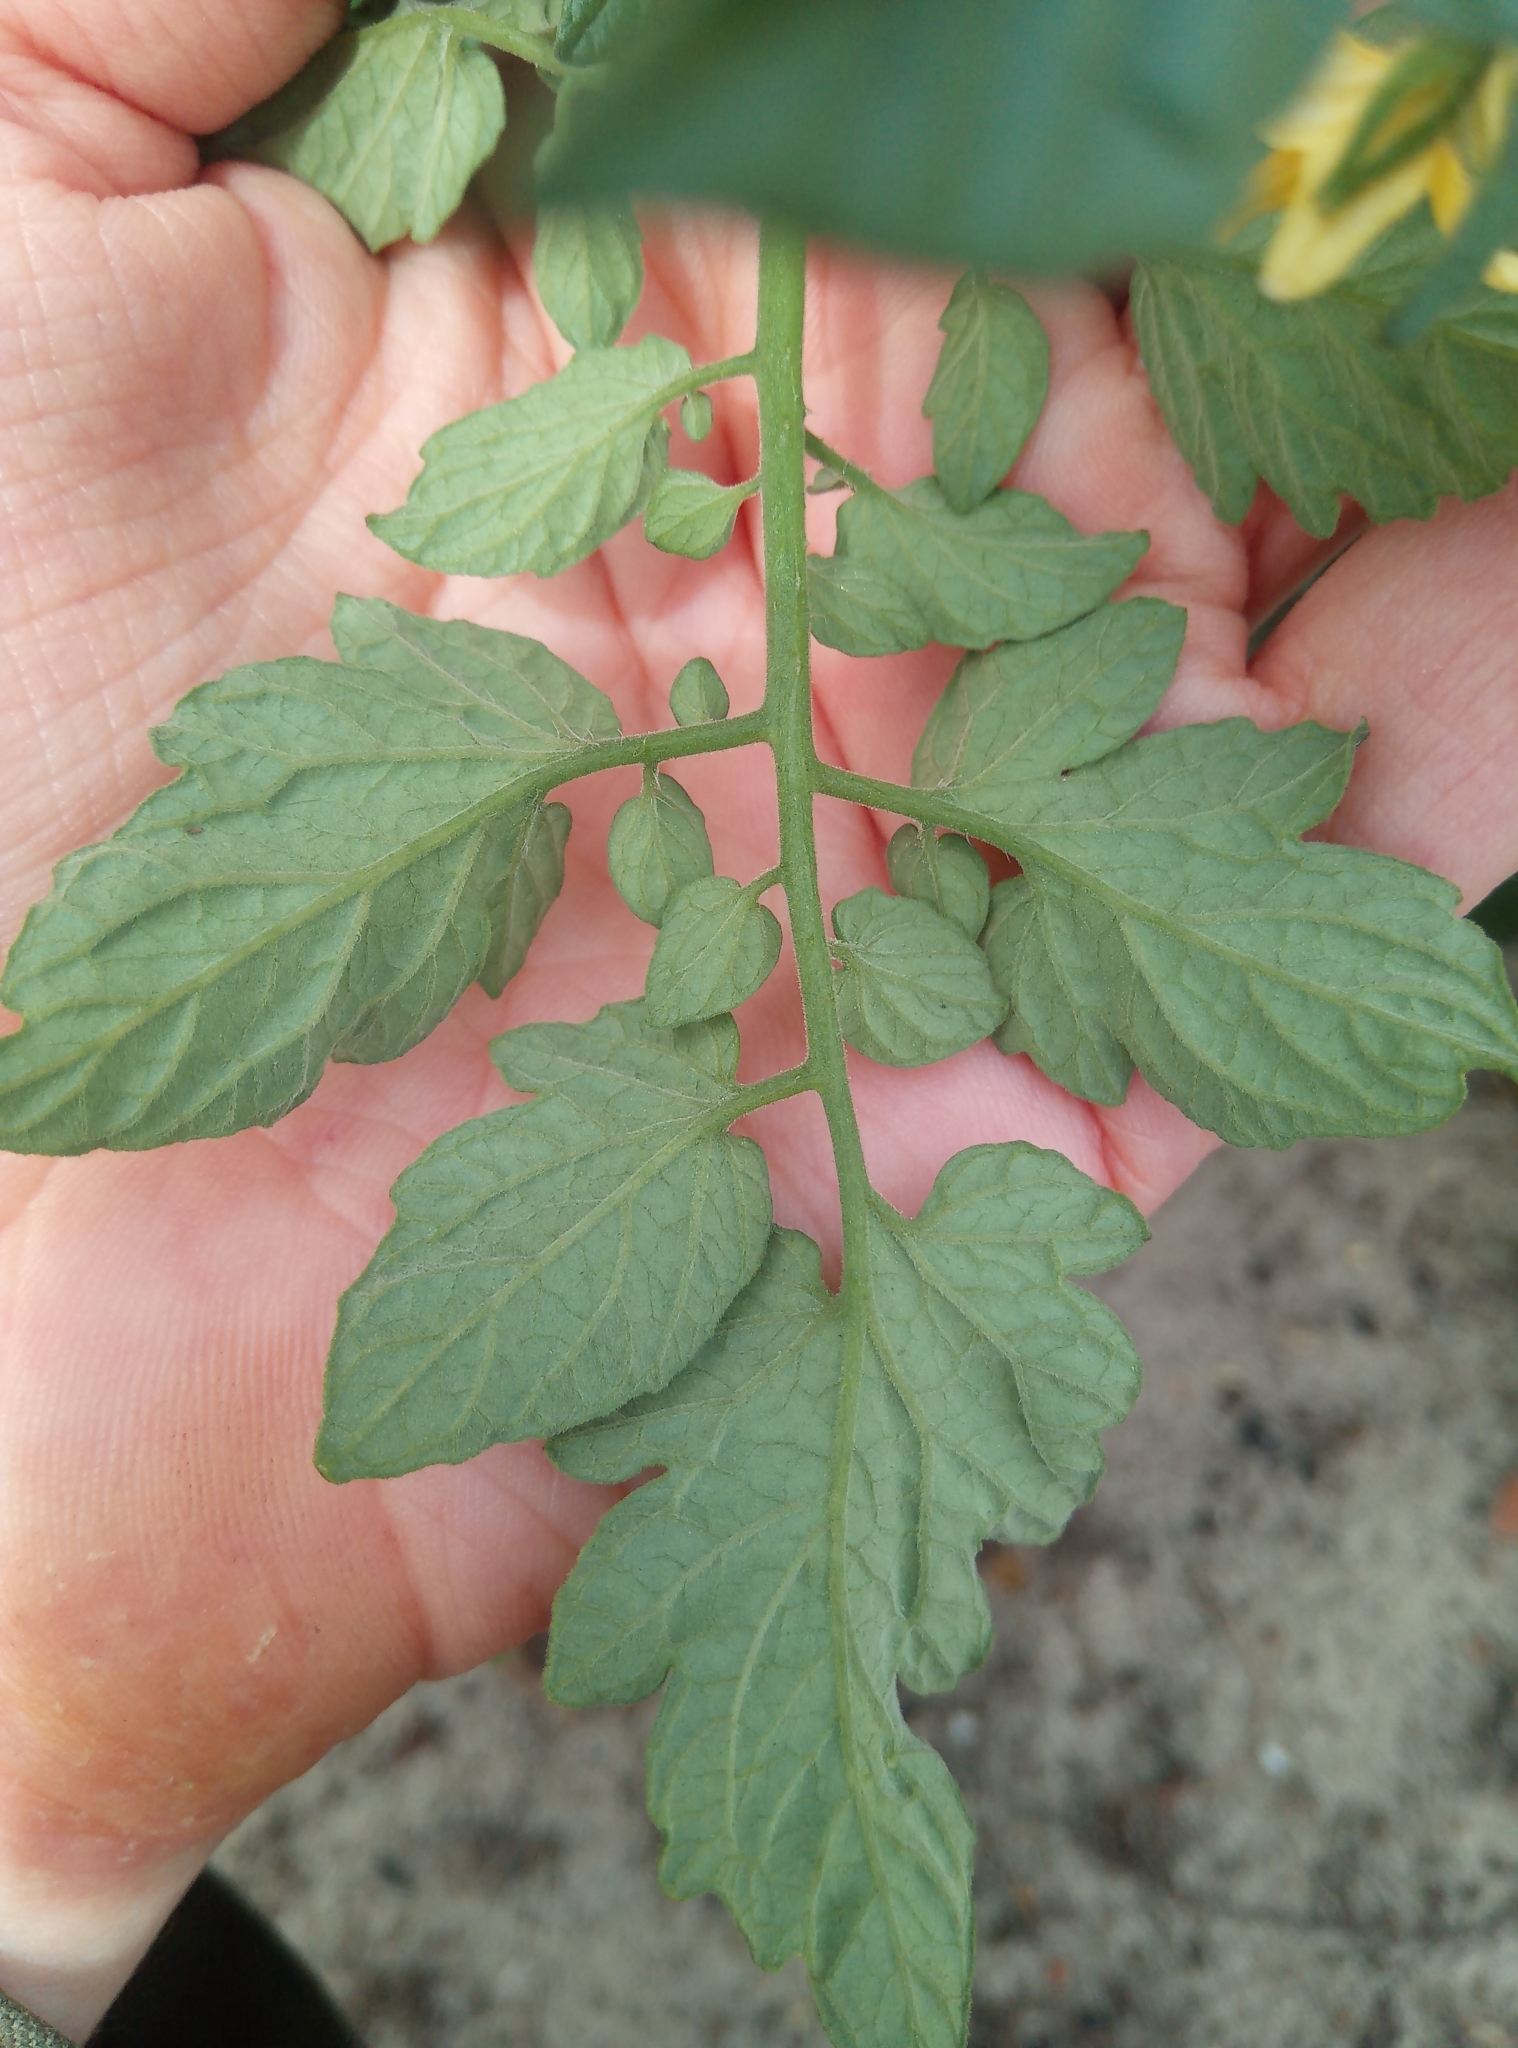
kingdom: Plantae
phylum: Tracheophyta
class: Magnoliopsida
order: Solanales
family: Solanaceae
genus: Solanum
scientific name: Solanum lycopersicum
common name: Garden tomato
